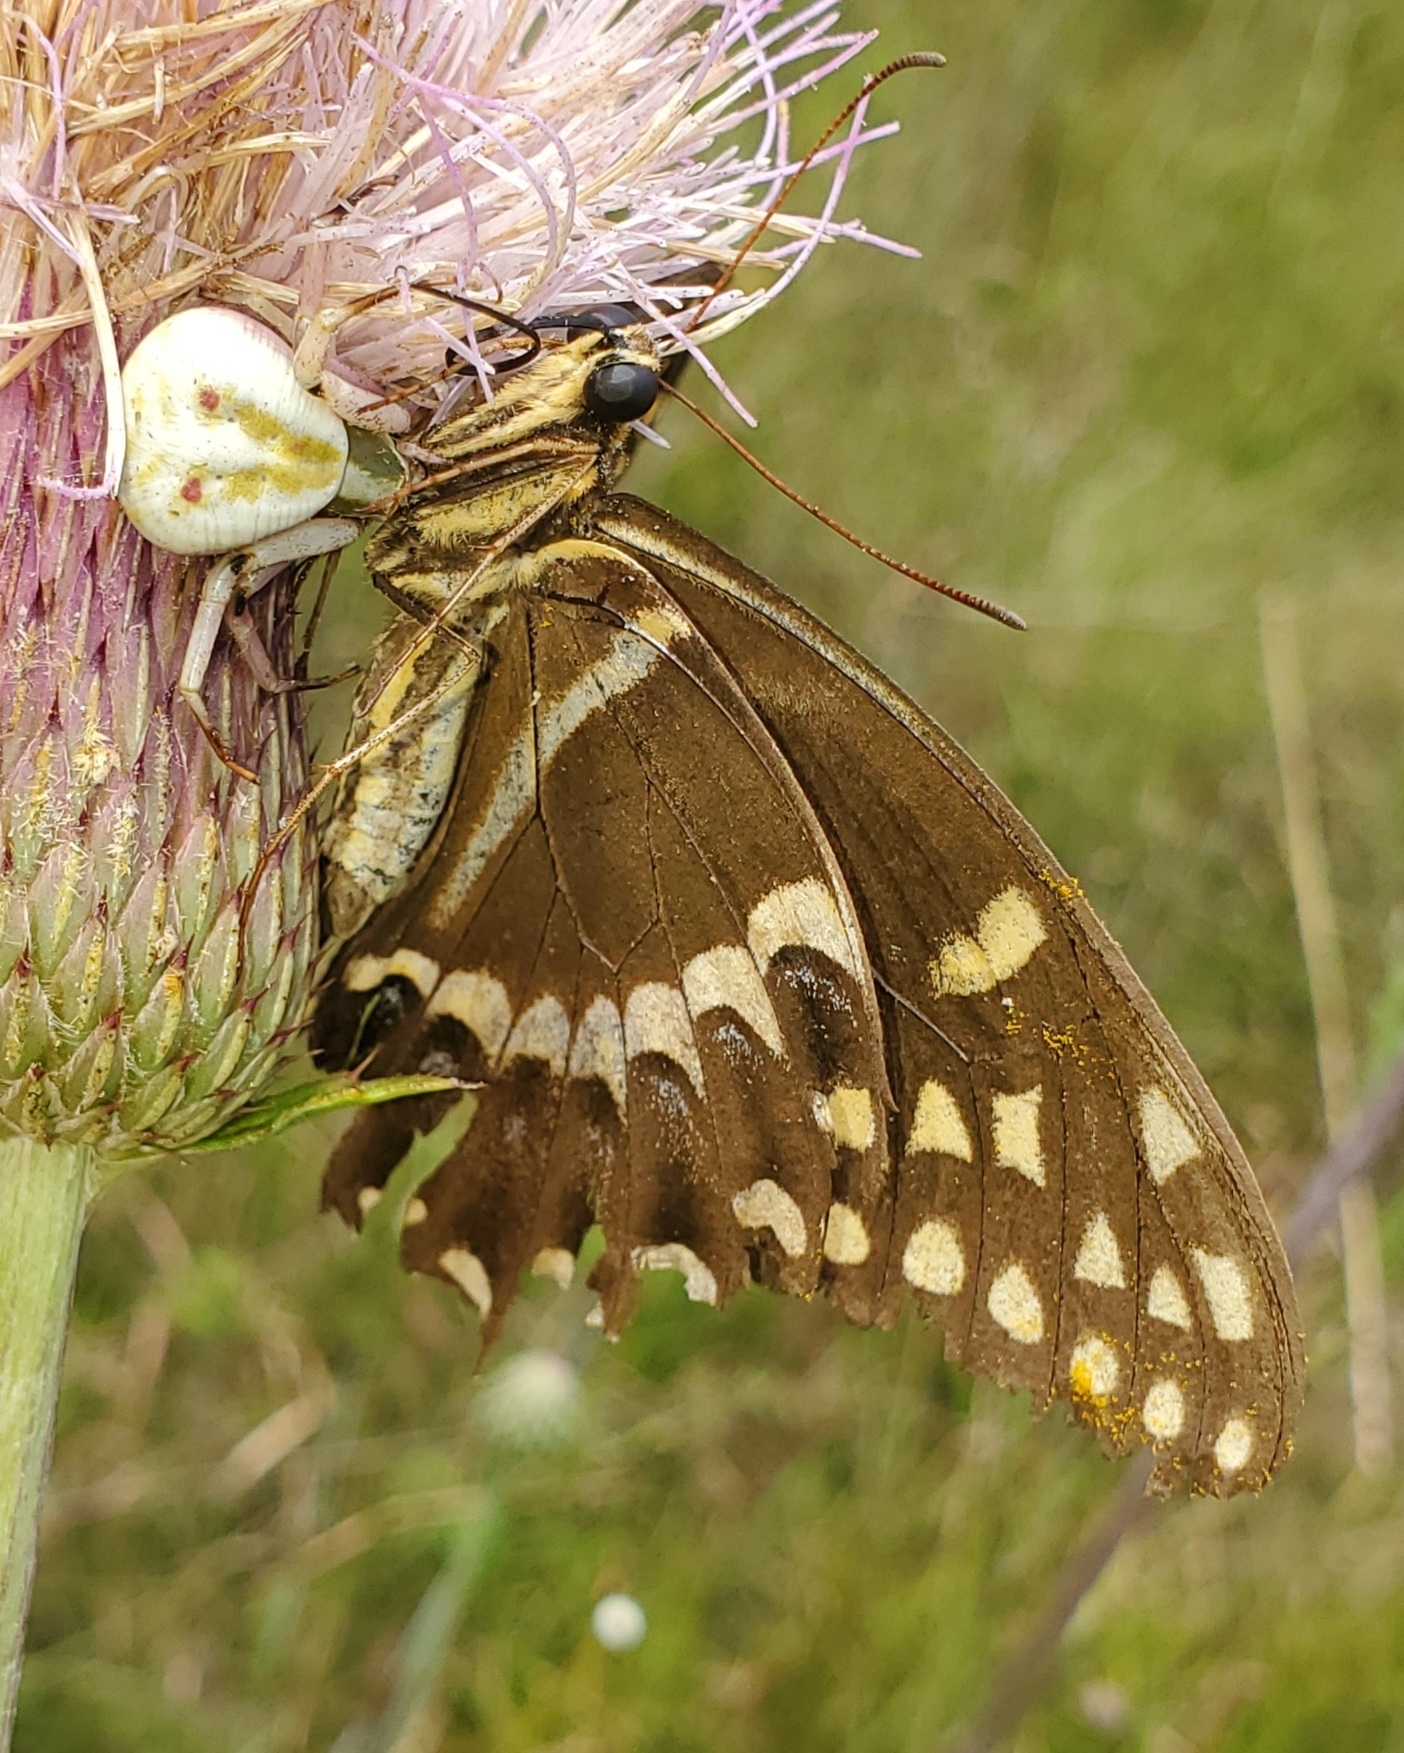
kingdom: Animalia
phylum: Arthropoda
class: Insecta
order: Lepidoptera
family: Papilionidae
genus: Papilio
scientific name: Papilio palamedes
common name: Palamedes swallowtail
